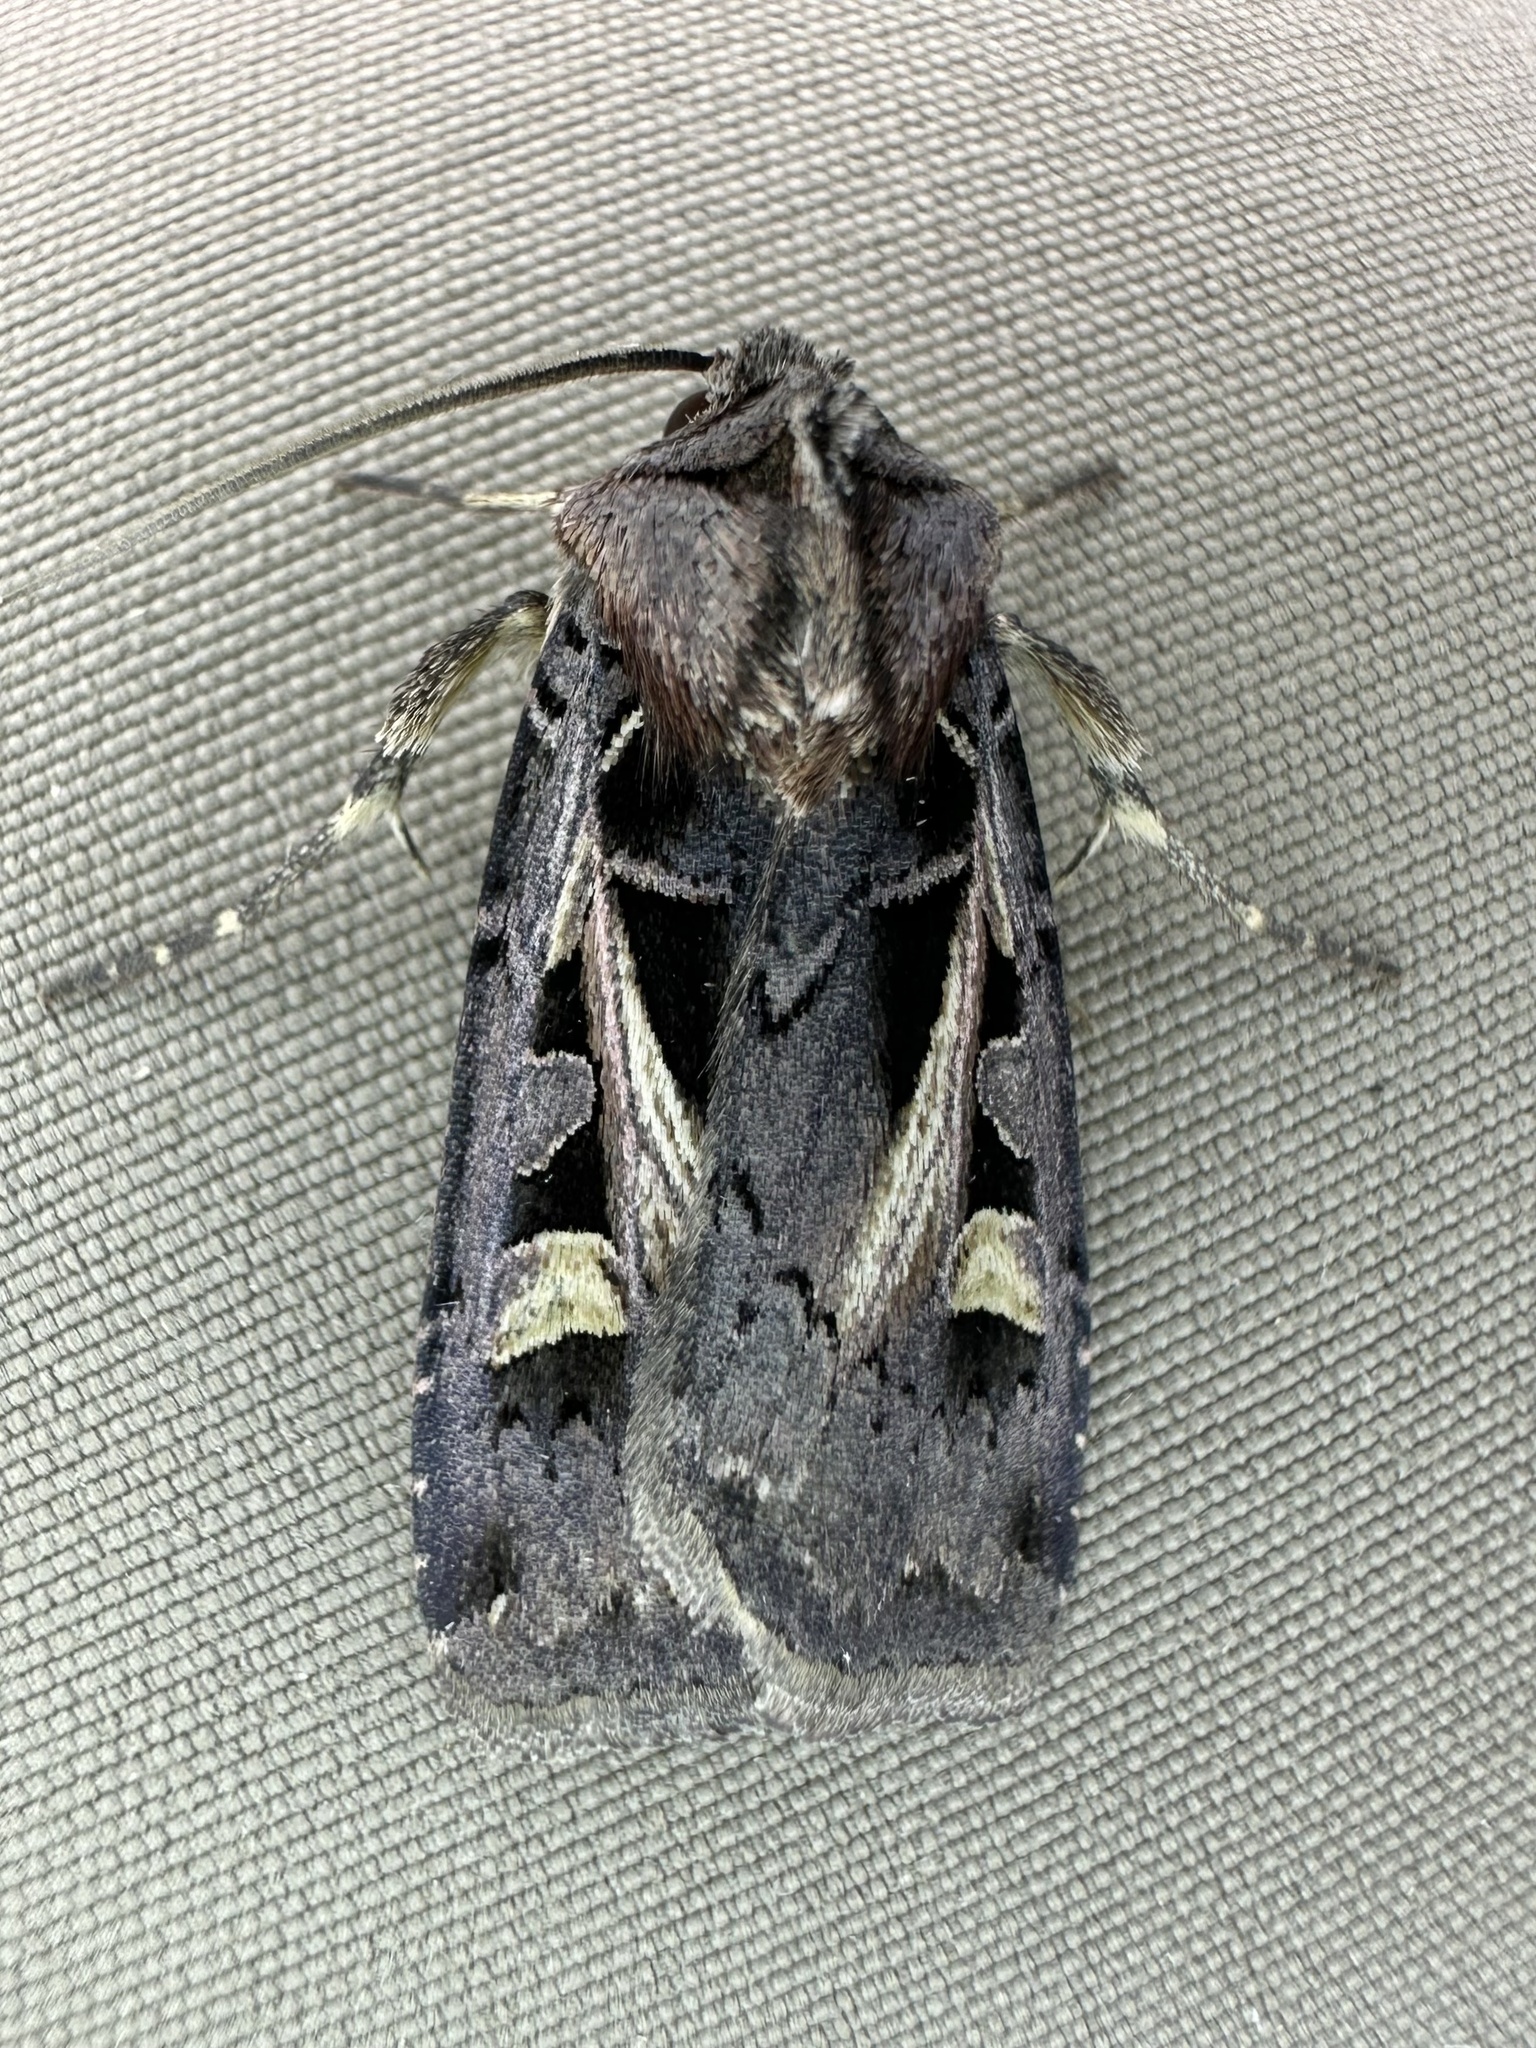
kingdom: Animalia
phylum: Arthropoda
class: Insecta
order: Lepidoptera
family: Noctuidae
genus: Feltia
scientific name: Feltia herilis
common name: Master's dart
